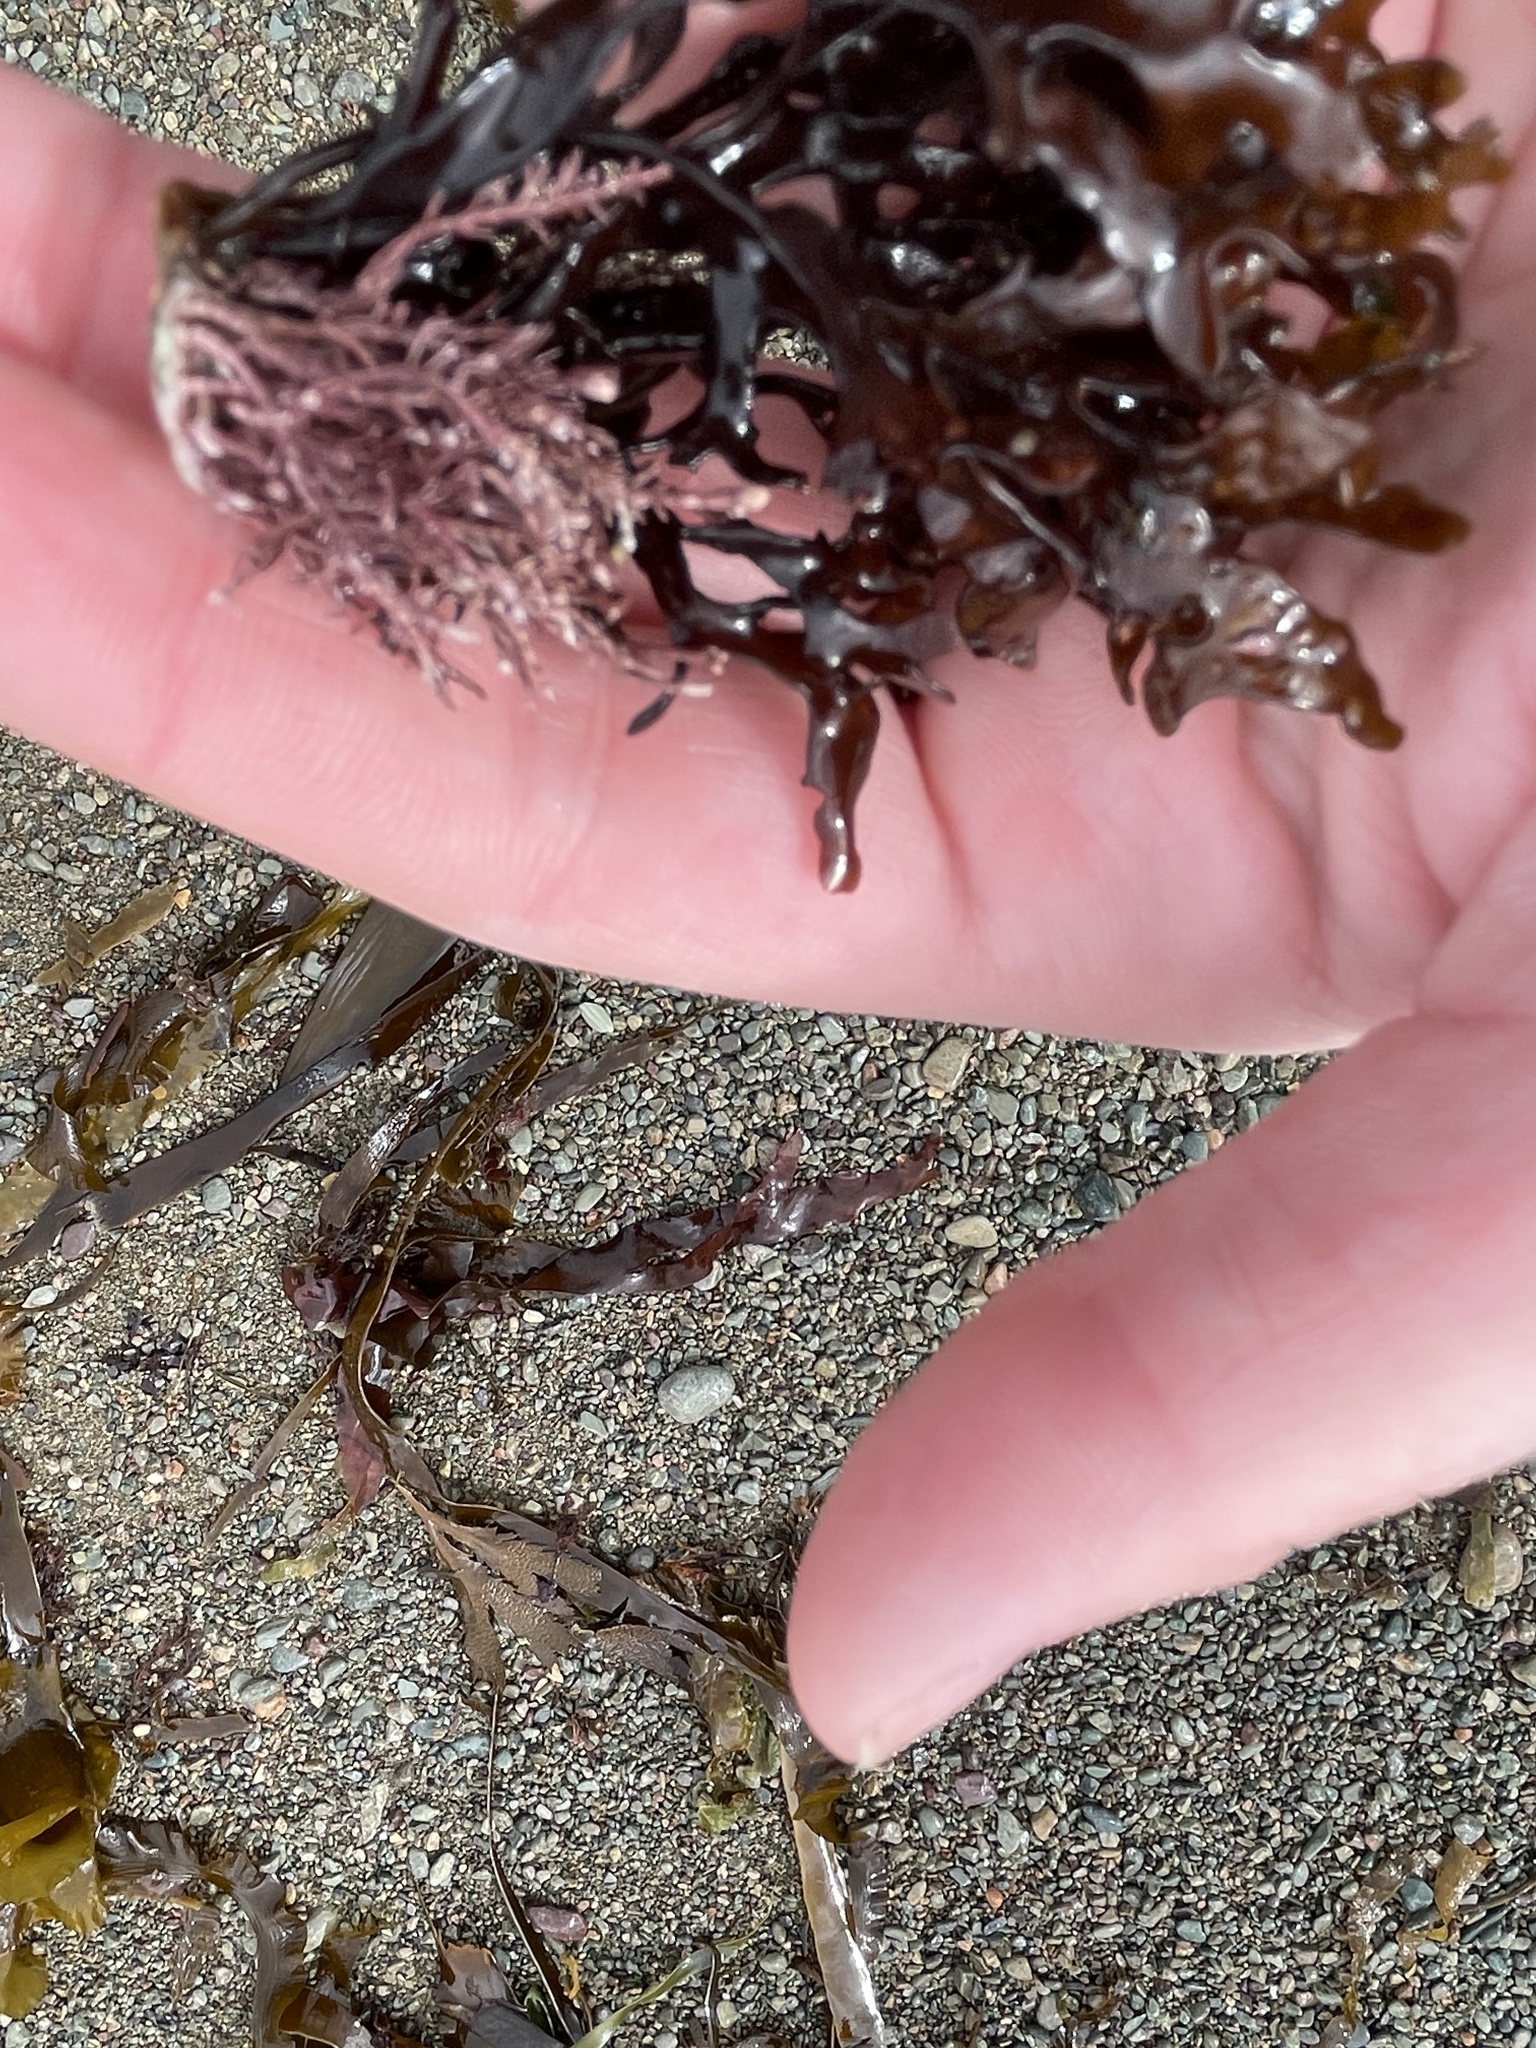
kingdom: Plantae
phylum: Rhodophyta
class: Florideophyceae
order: Corallinales
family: Corallinaceae
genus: Corallina
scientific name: Corallina officinalis
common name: Coral weed
